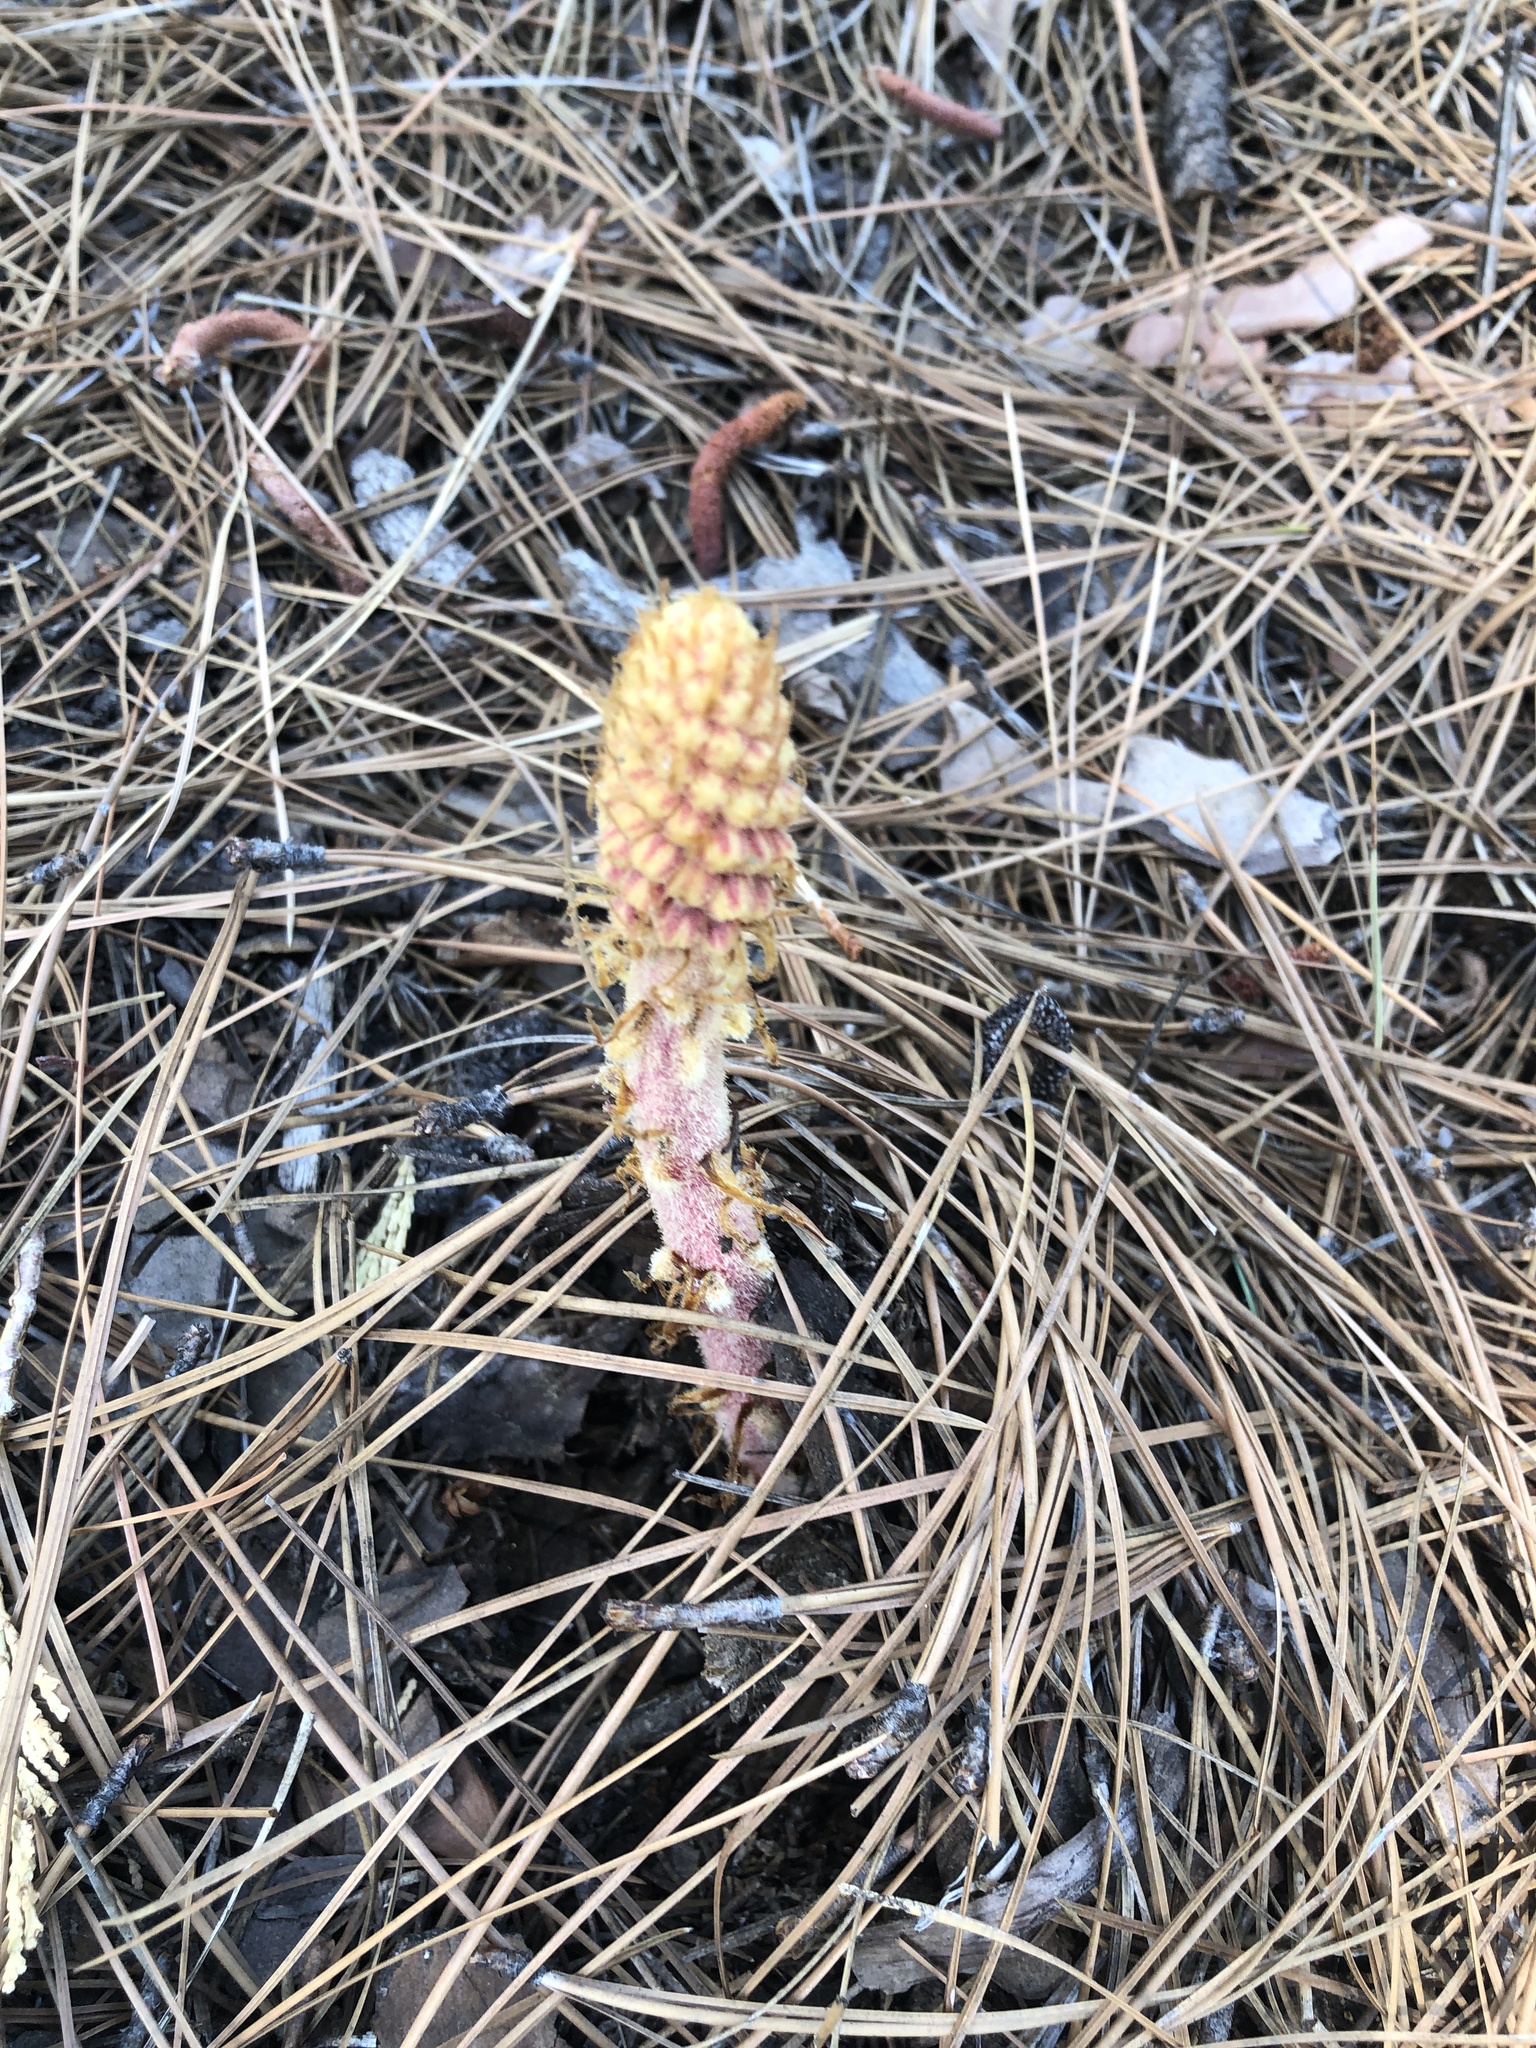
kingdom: Plantae
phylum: Tracheophyta
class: Magnoliopsida
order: Ericales
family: Ericaceae
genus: Pterospora
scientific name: Pterospora andromedea
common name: Giant bird's-nest
